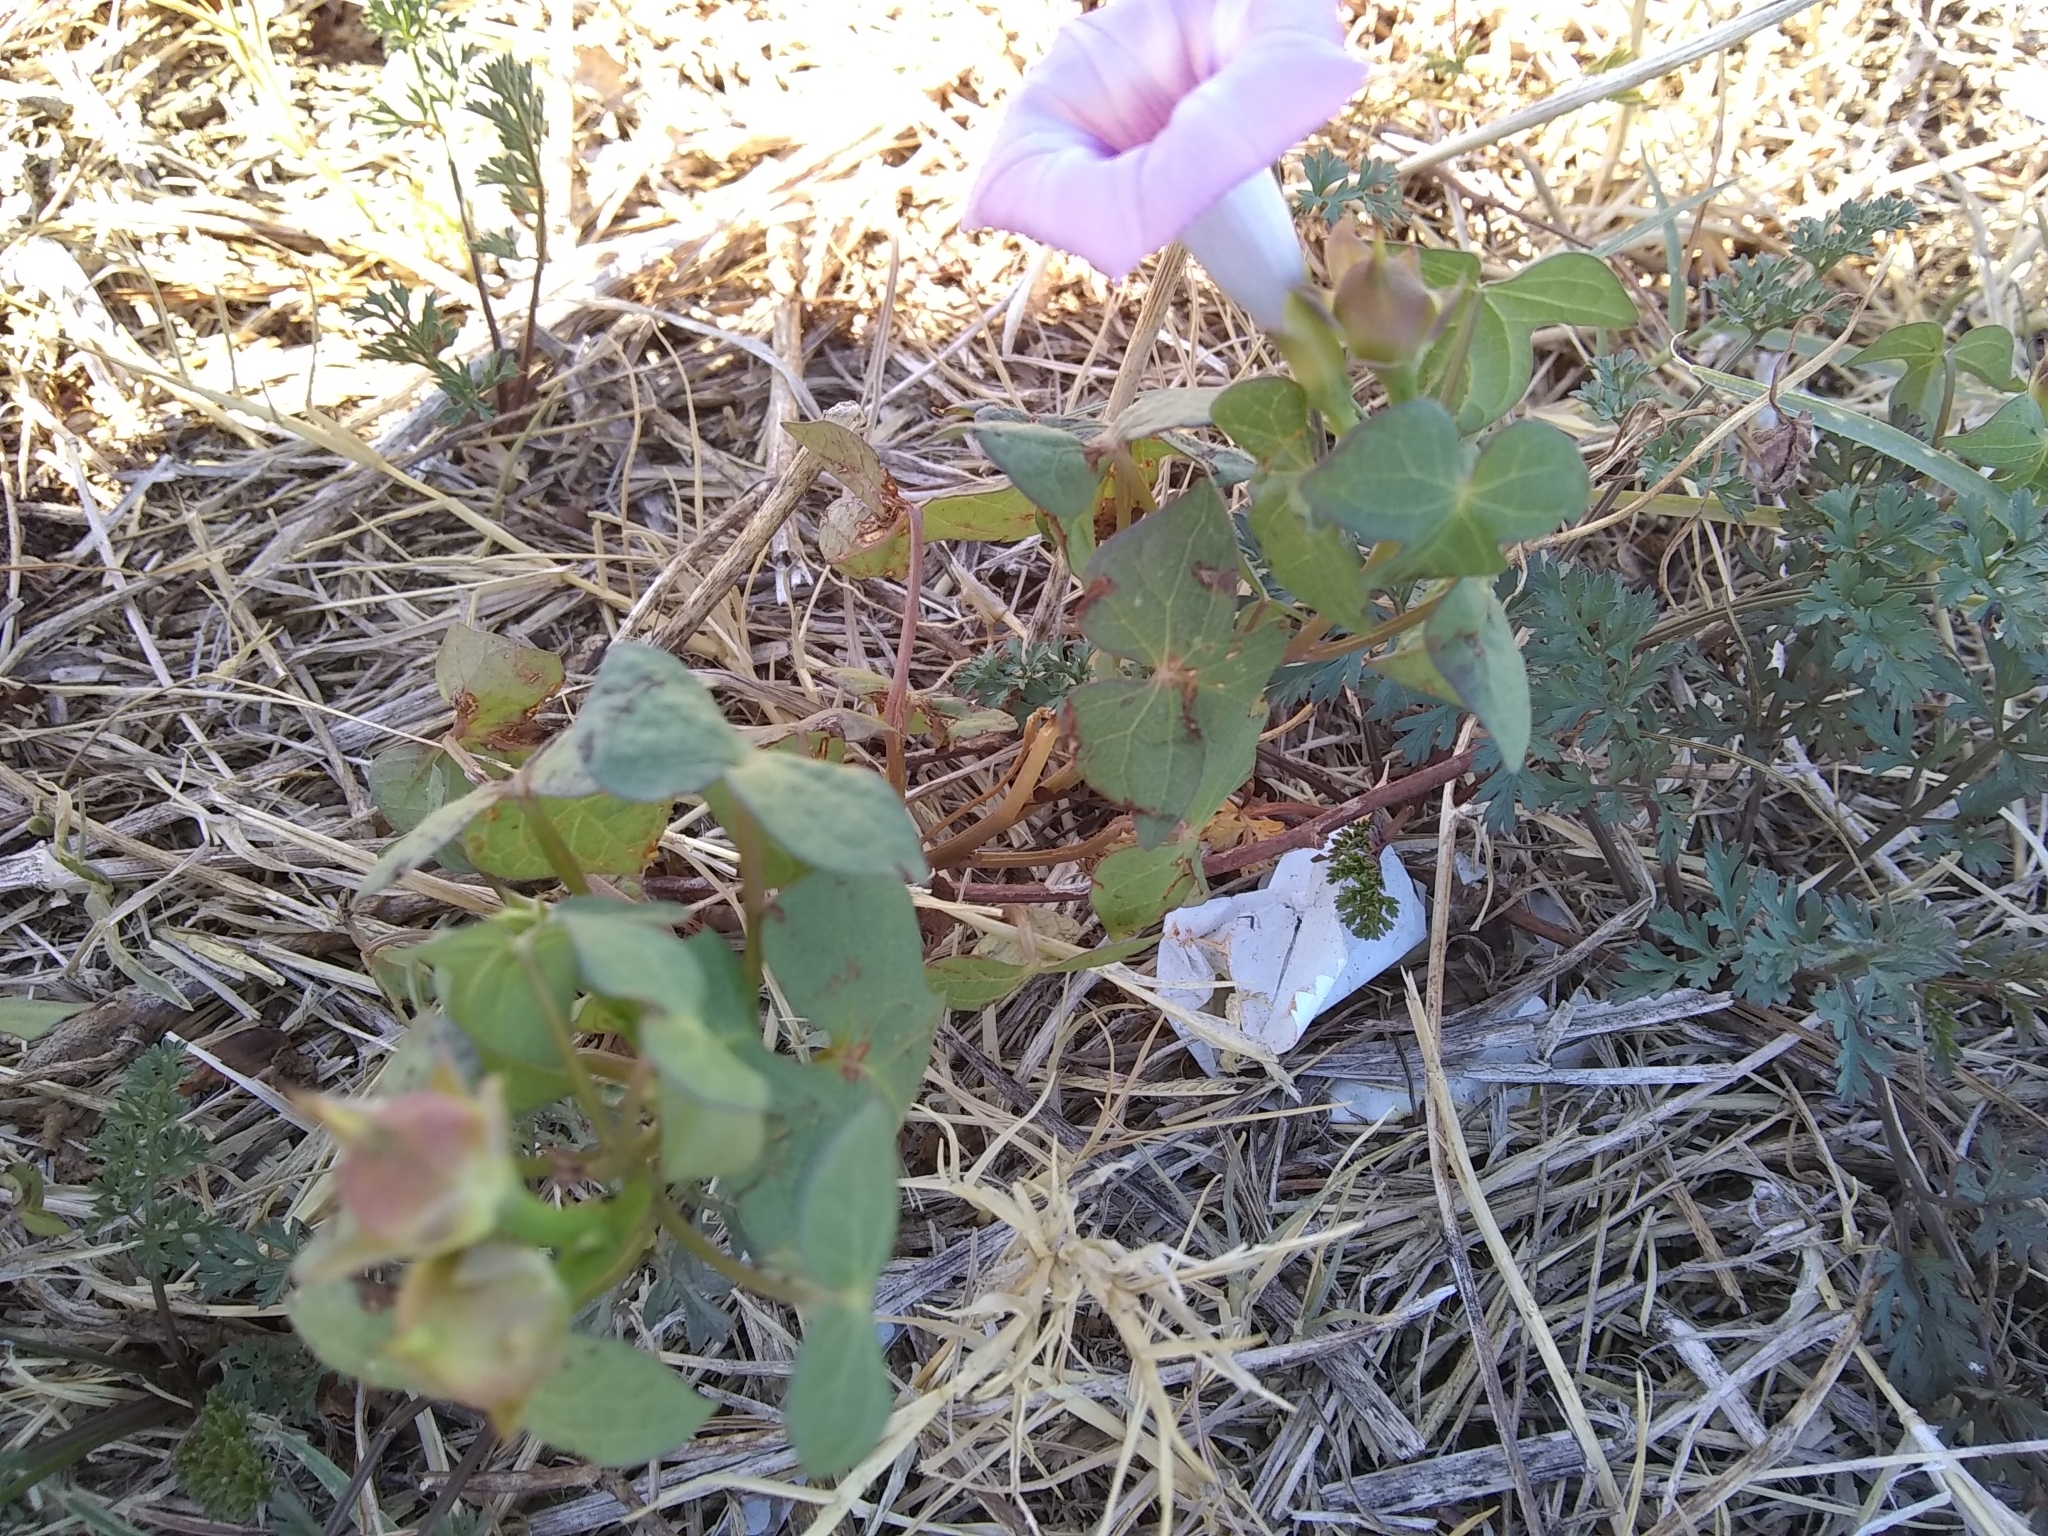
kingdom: Plantae
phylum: Tracheophyta
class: Magnoliopsida
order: Solanales
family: Convolvulaceae
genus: Ipomoea
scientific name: Ipomoea cordatotriloba
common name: Cotton morning glory
